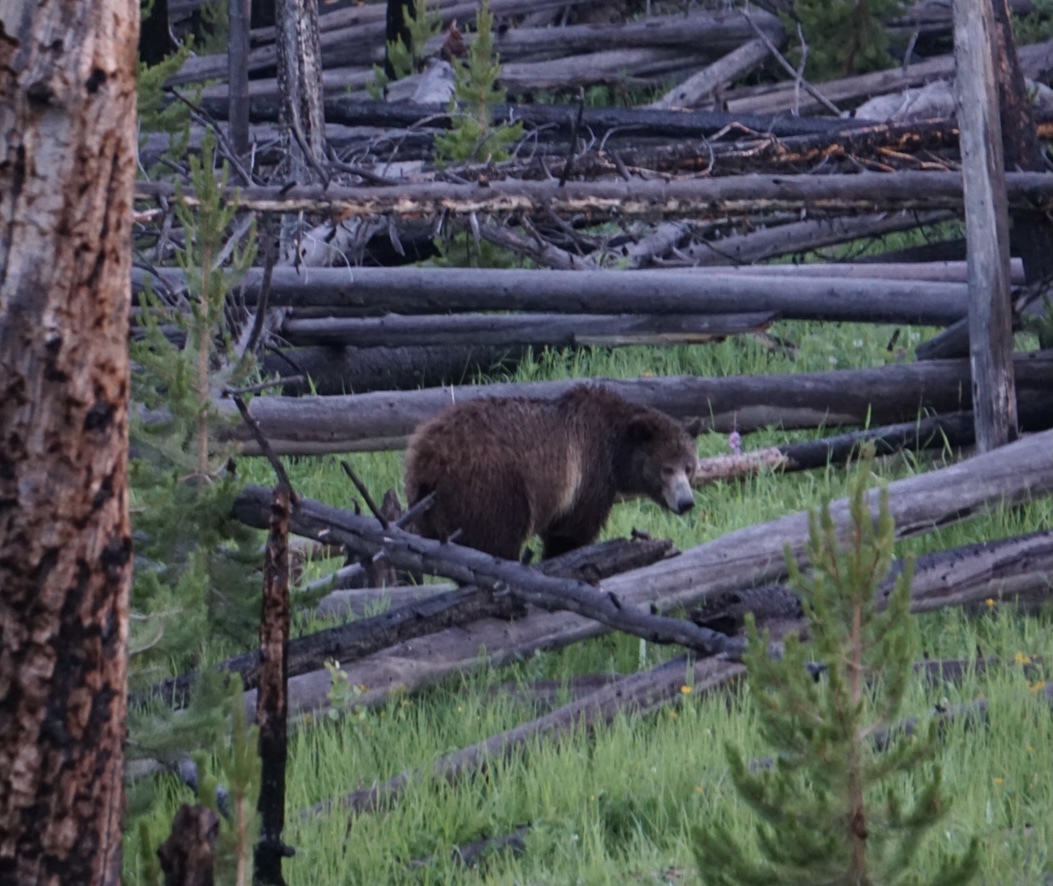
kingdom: Animalia
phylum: Chordata
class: Mammalia
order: Carnivora
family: Ursidae
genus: Ursus
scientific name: Ursus arctos
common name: Brown bear
